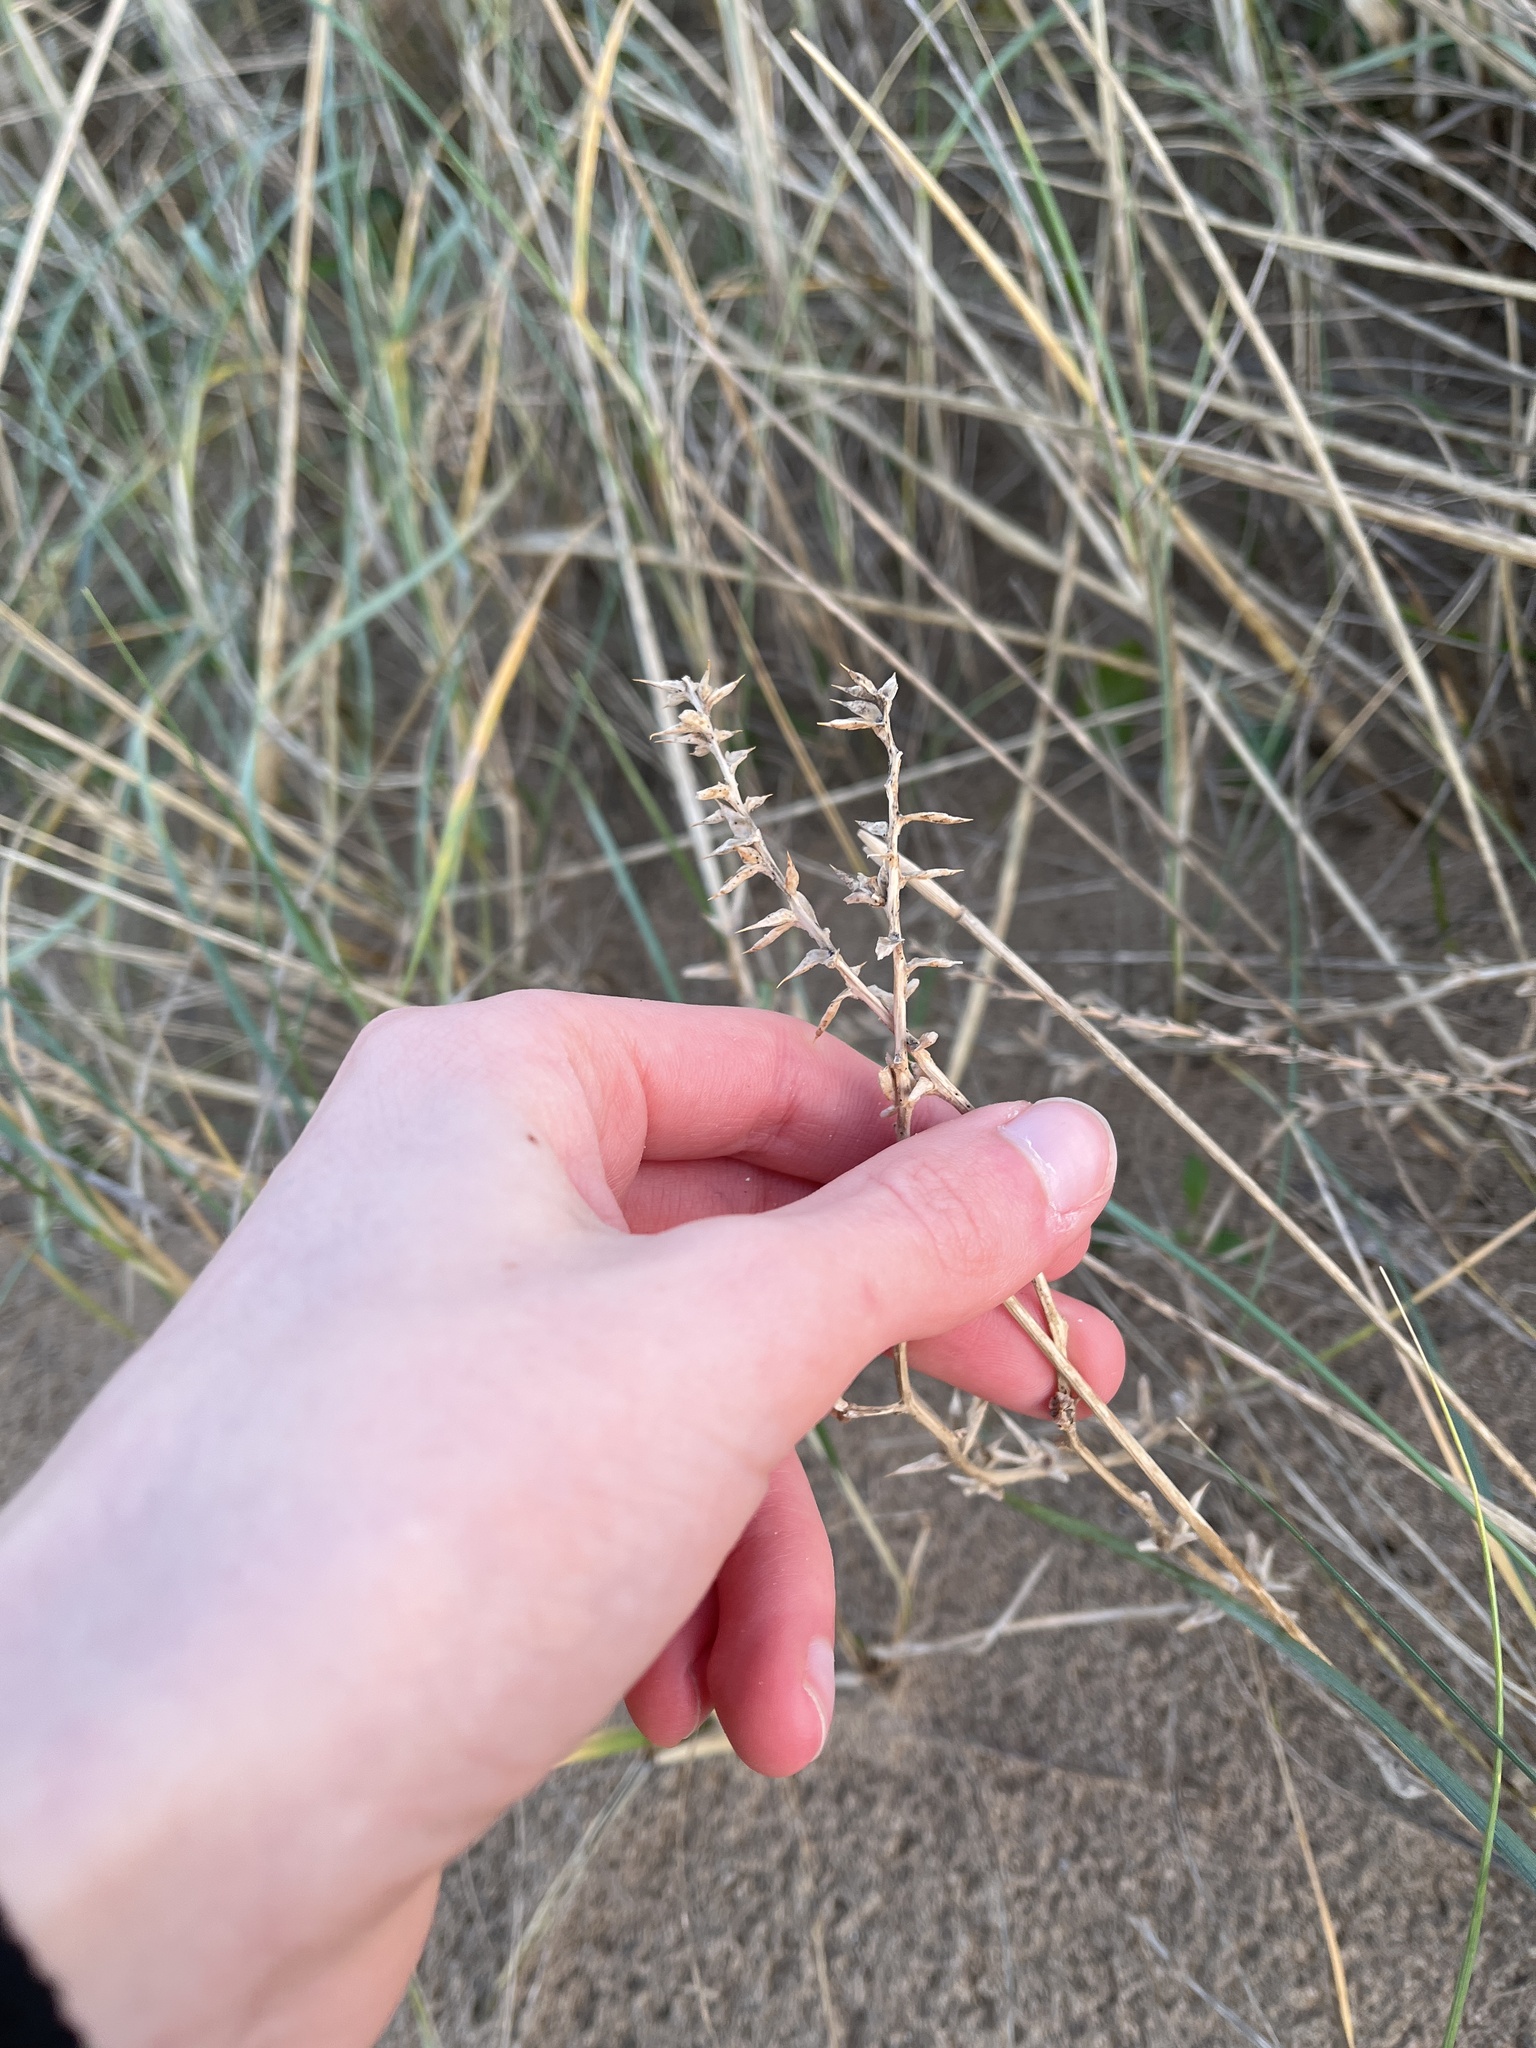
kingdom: Plantae
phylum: Tracheophyta
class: Magnoliopsida
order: Caryophyllales
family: Amaranthaceae
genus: Salsola
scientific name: Salsola kali
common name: Saltwort
